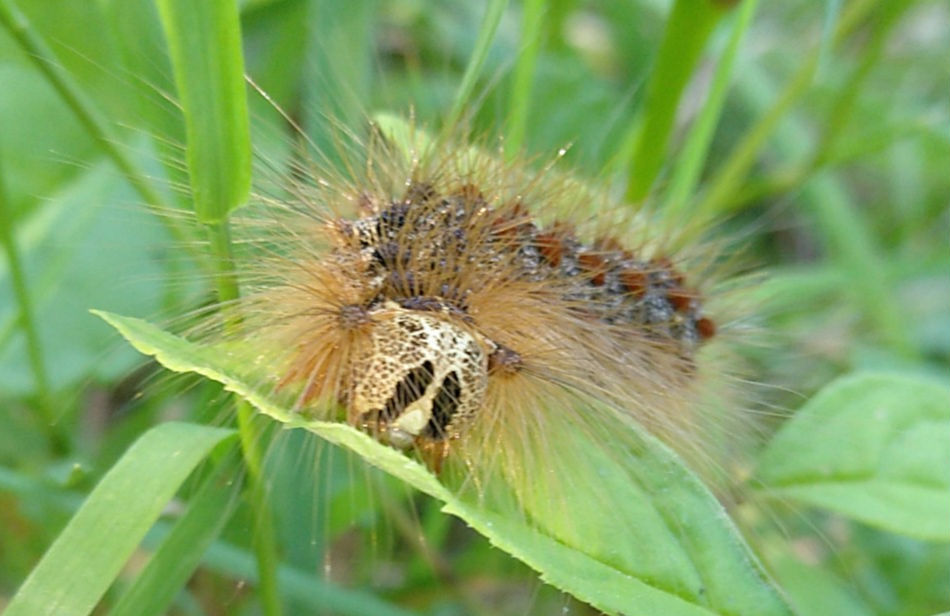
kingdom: Animalia
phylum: Arthropoda
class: Insecta
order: Lepidoptera
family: Erebidae
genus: Lymantria
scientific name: Lymantria dispar
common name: Gypsy moth
